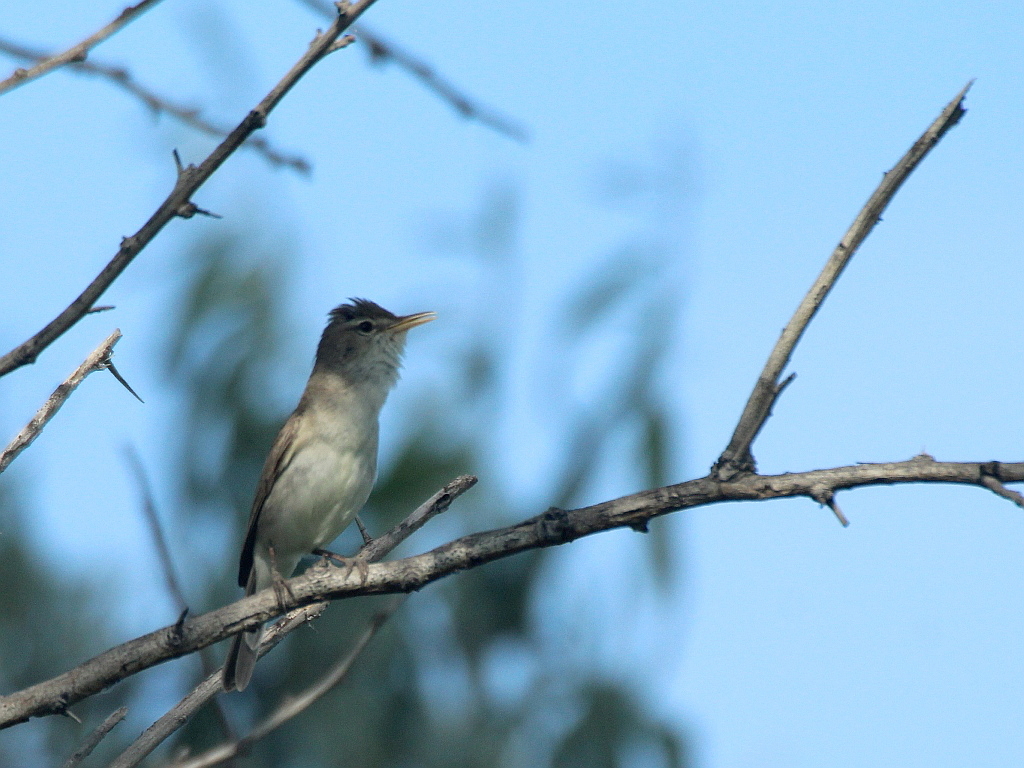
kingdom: Animalia
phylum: Chordata
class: Aves
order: Passeriformes
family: Acrocephalidae
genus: Iduna
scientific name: Iduna pallida
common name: Eastern olivaceous warbler
